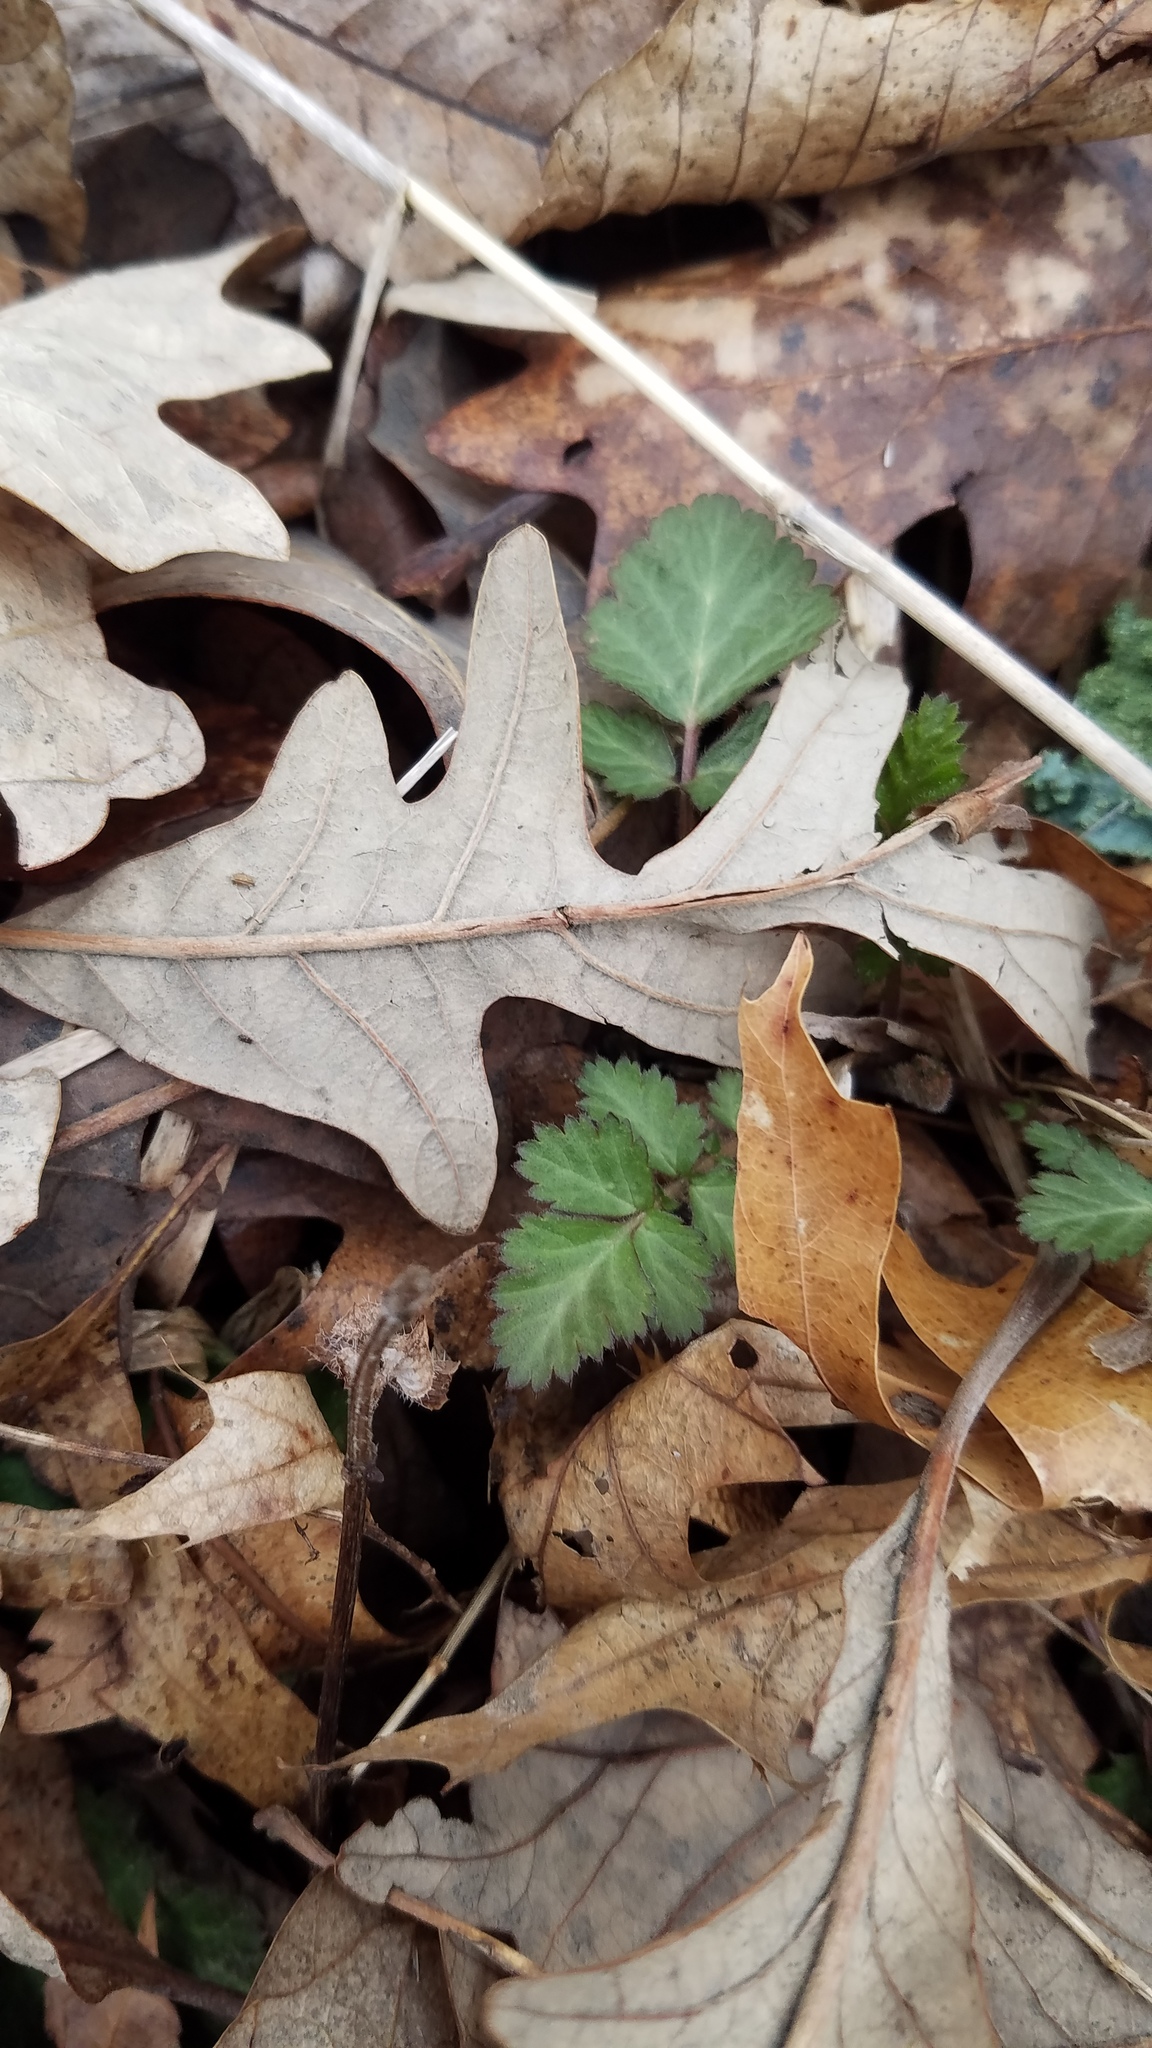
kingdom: Plantae
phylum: Tracheophyta
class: Magnoliopsida
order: Fagales
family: Fagaceae
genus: Quercus
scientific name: Quercus alba
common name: White oak
